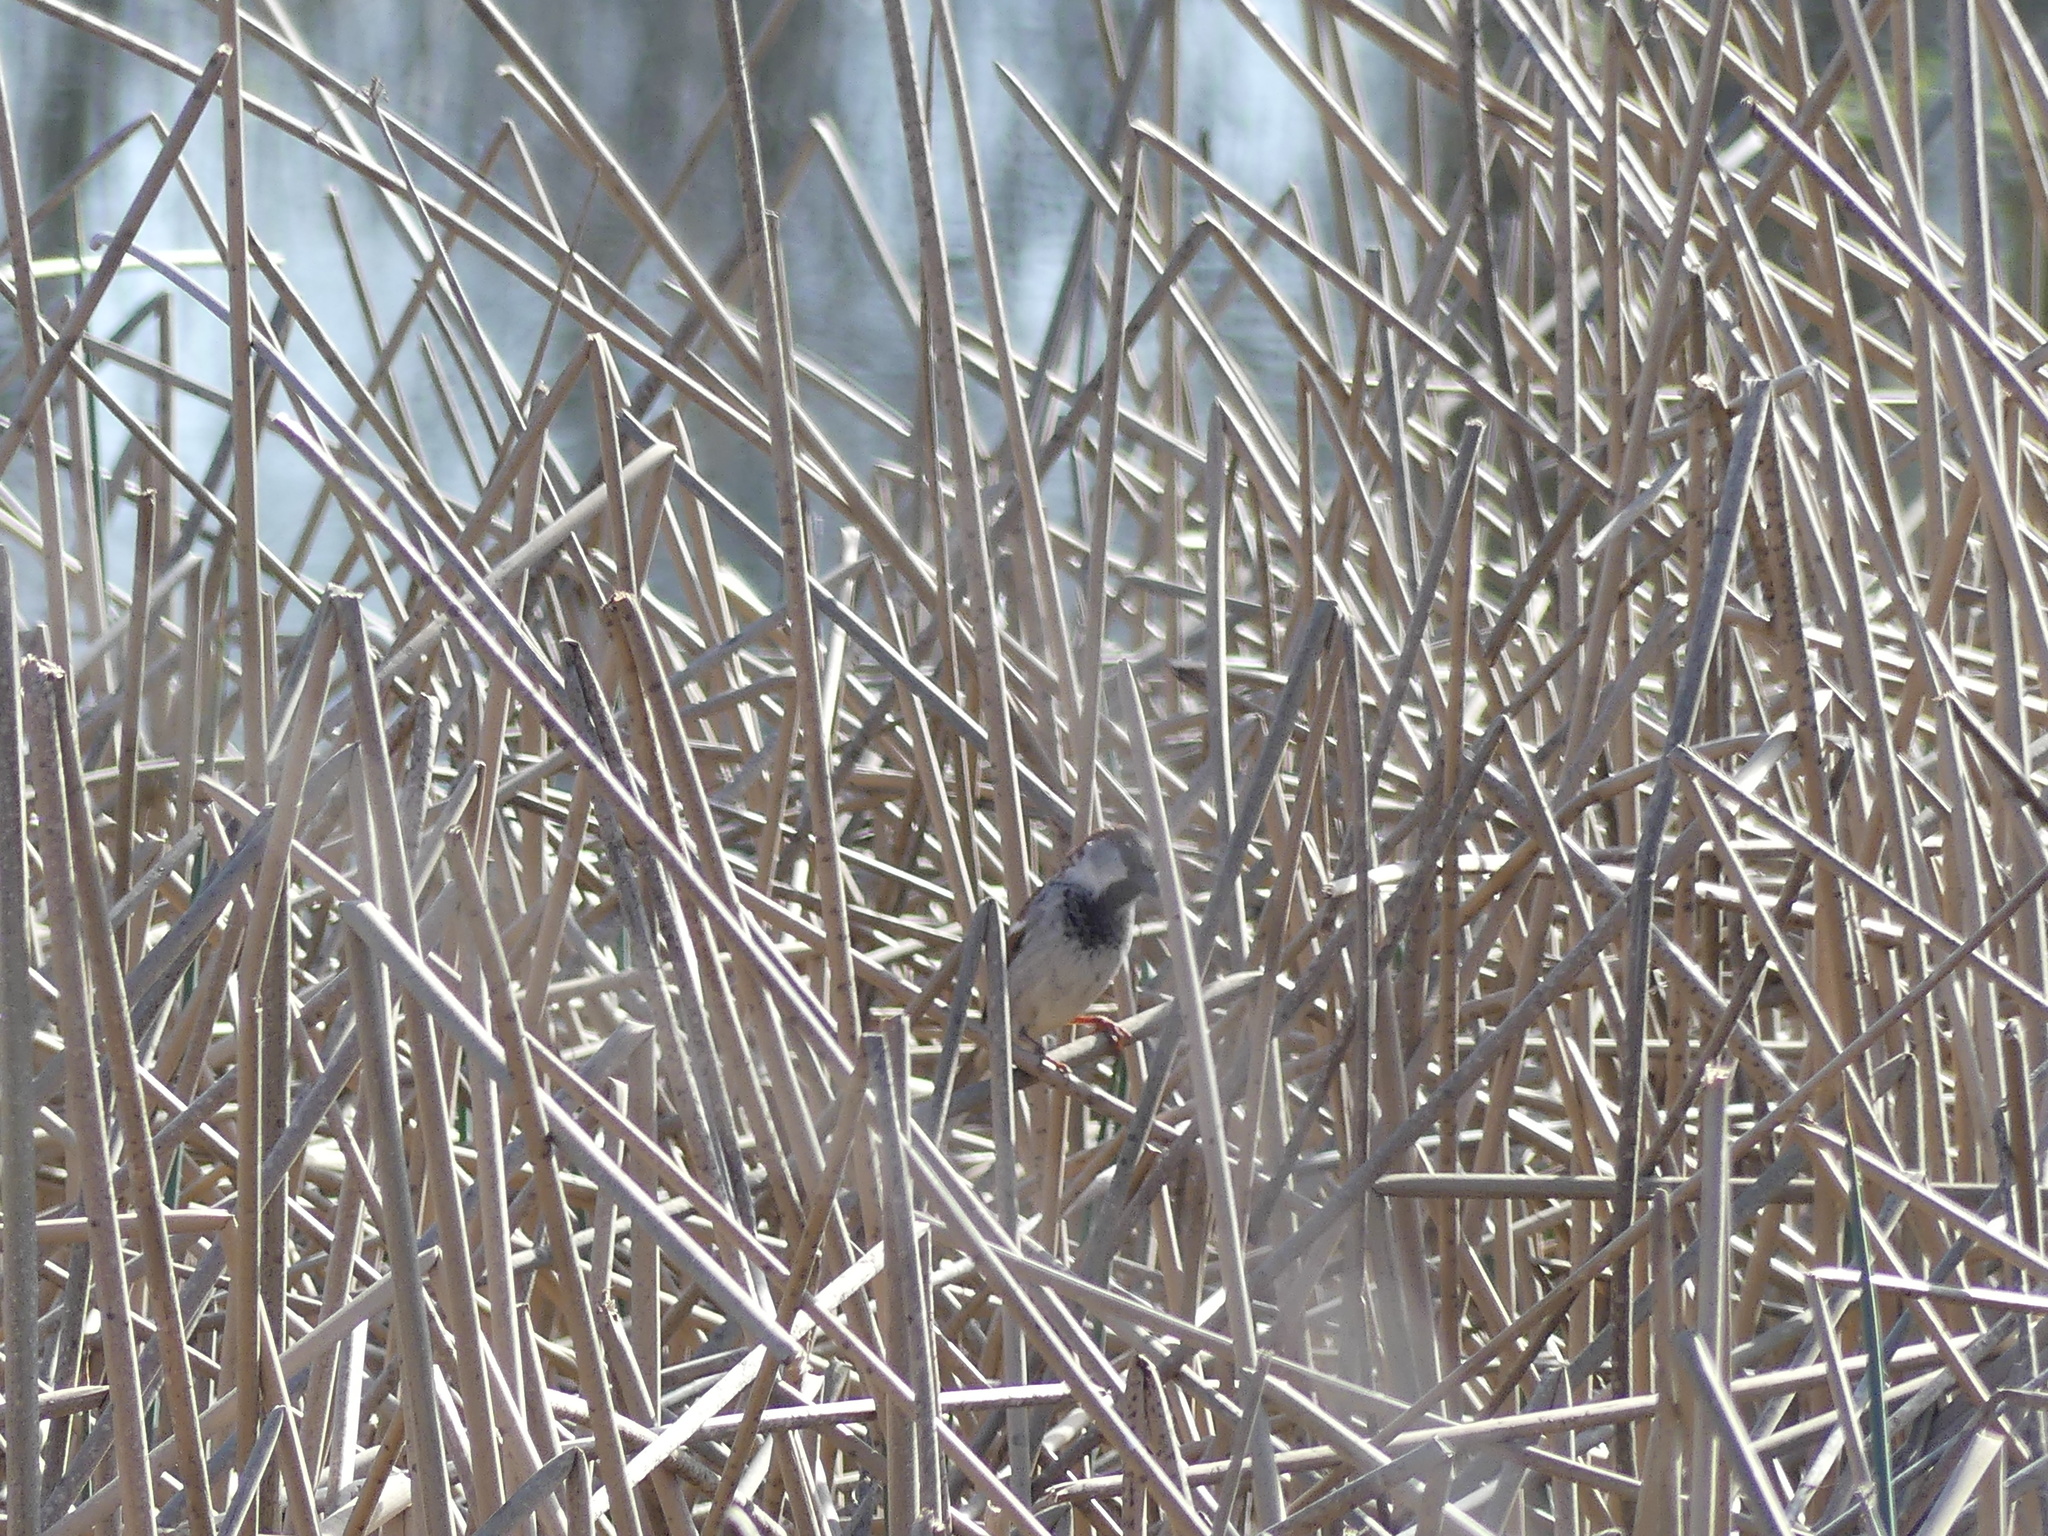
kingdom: Animalia
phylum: Chordata
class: Aves
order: Passeriformes
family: Passeridae
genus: Passer
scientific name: Passer domesticus
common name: House sparrow
